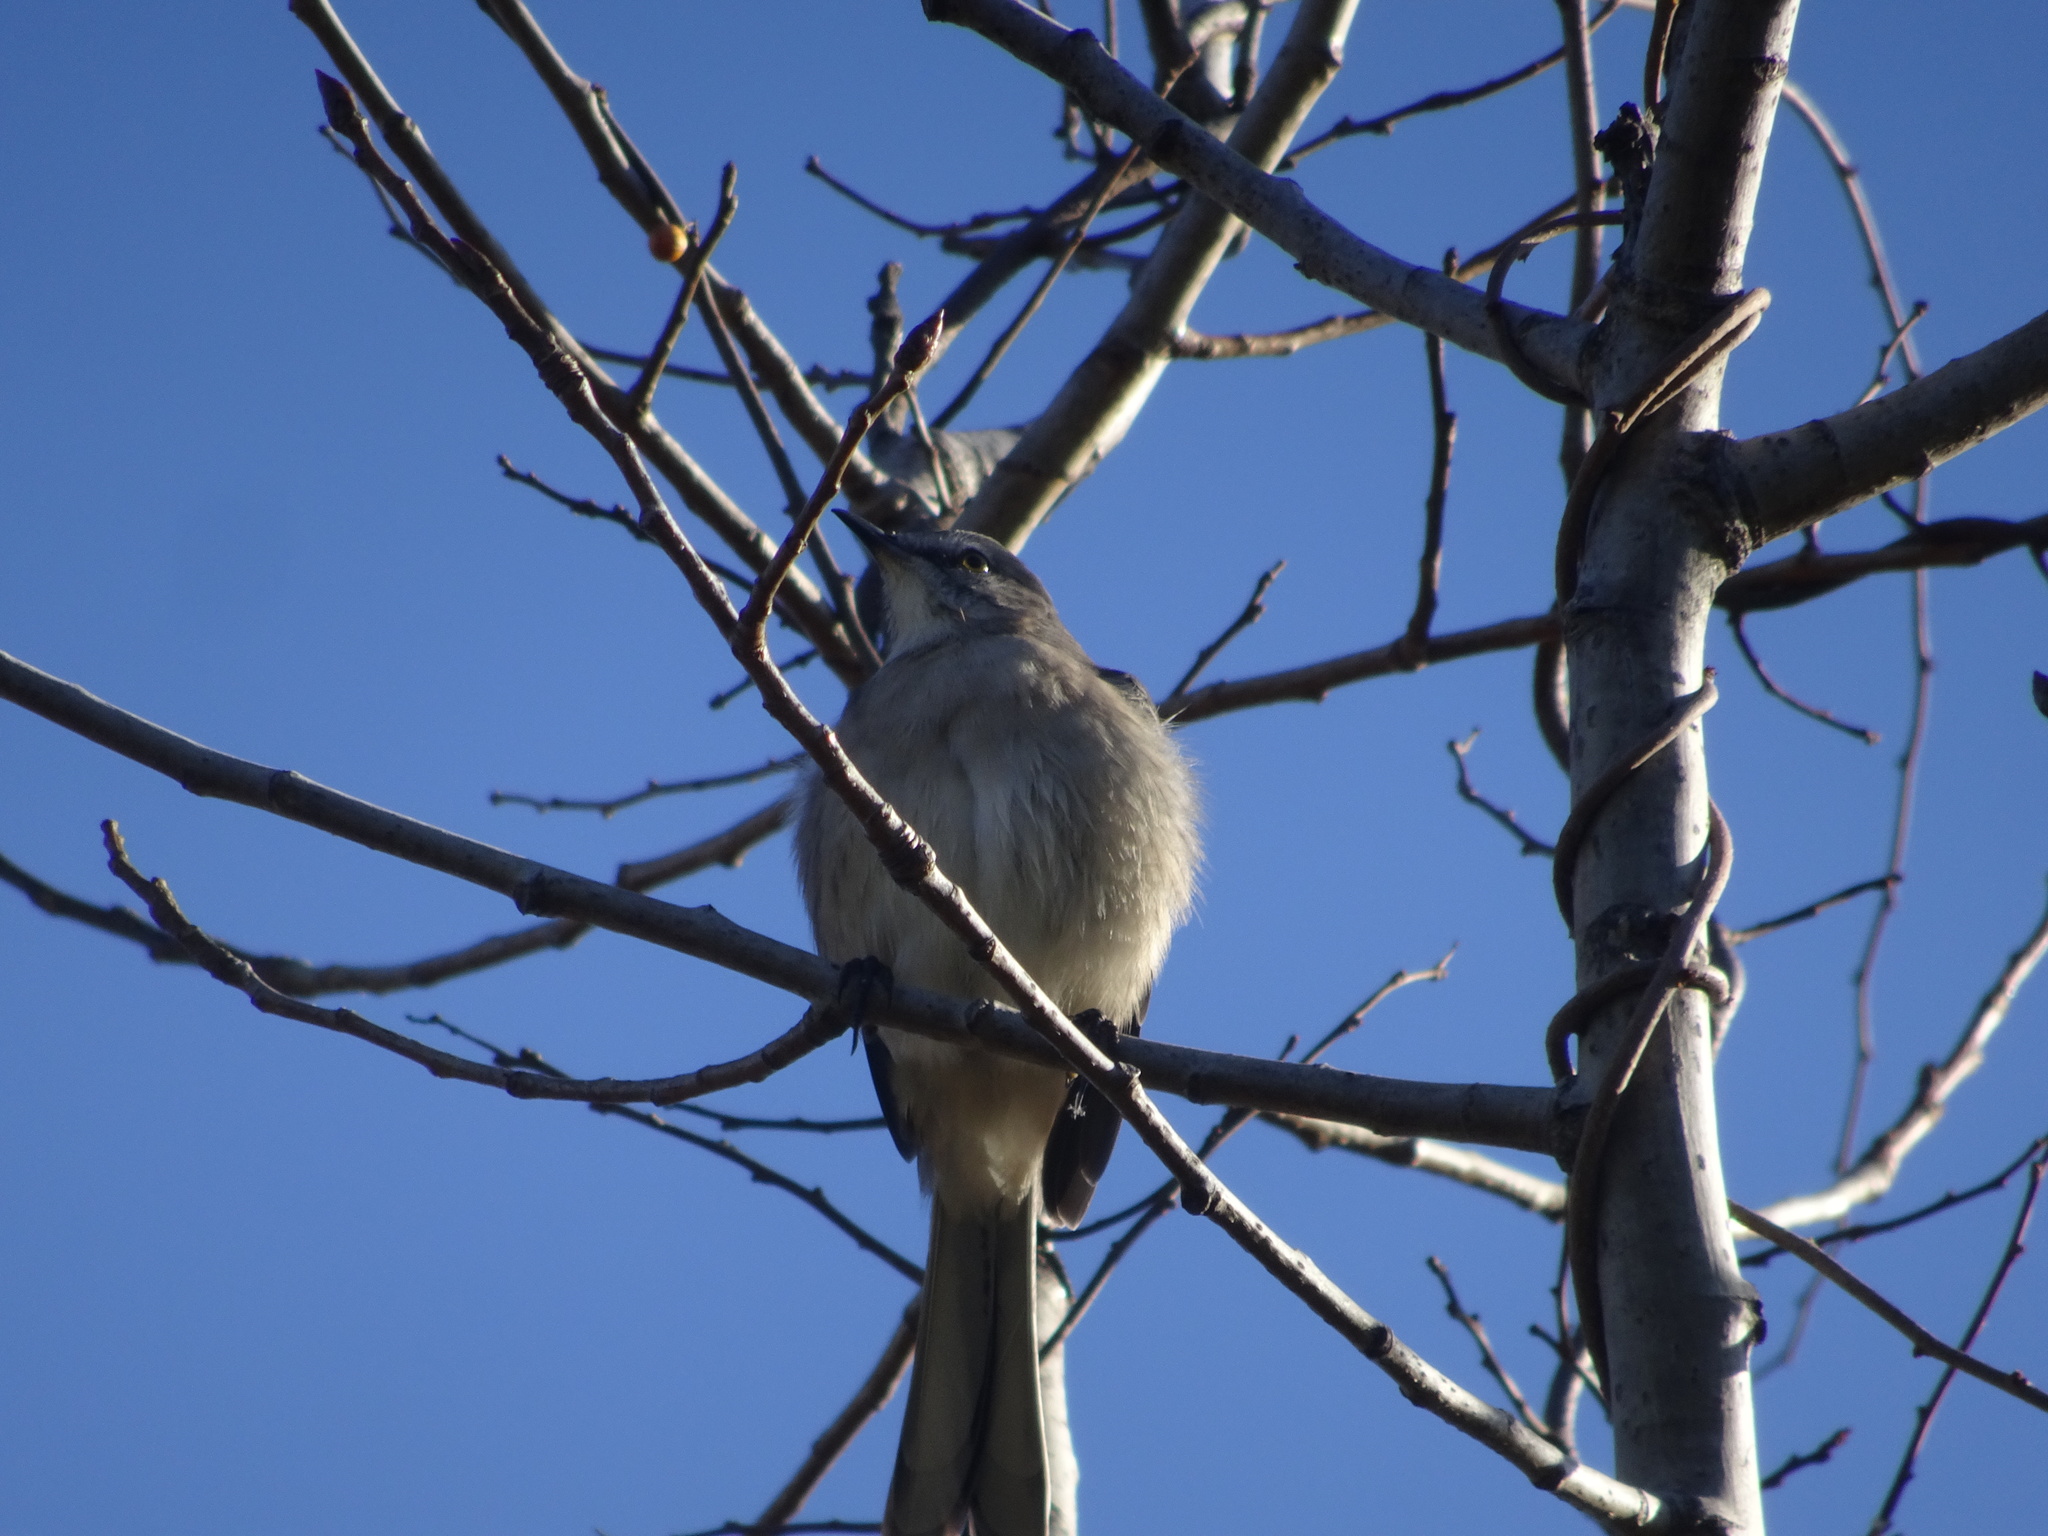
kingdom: Animalia
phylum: Chordata
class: Aves
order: Passeriformes
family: Mimidae
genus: Mimus
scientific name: Mimus polyglottos
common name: Northern mockingbird
